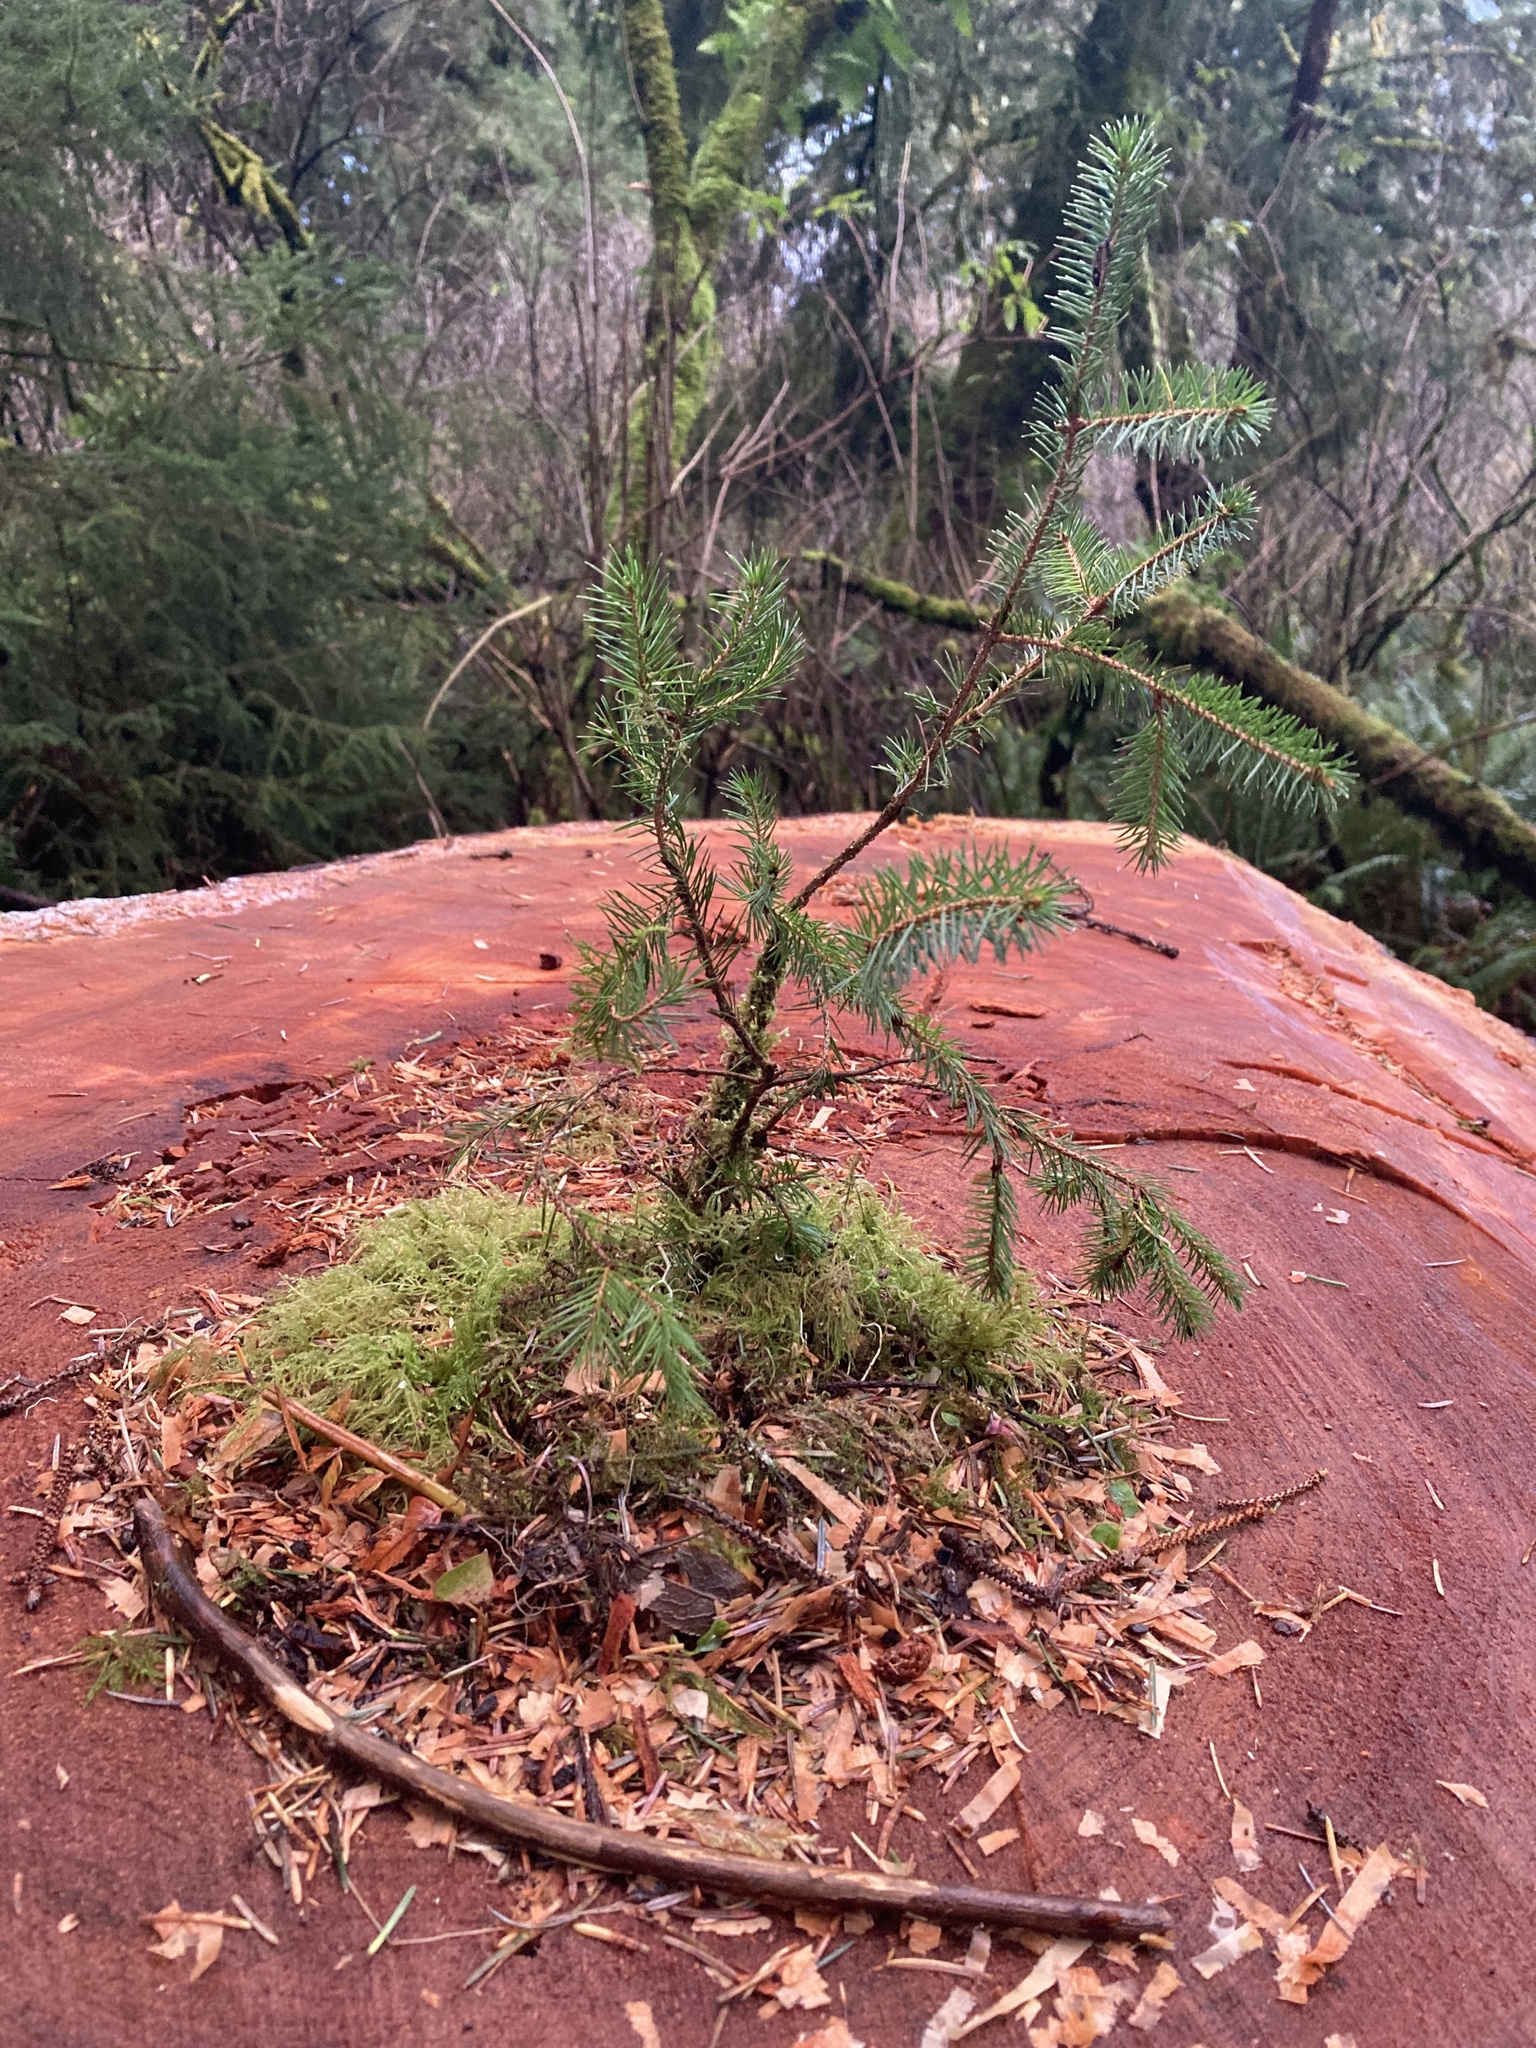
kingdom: Plantae
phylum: Tracheophyta
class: Pinopsida
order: Pinales
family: Pinaceae
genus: Picea
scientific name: Picea sitchensis
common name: Sitka spruce
